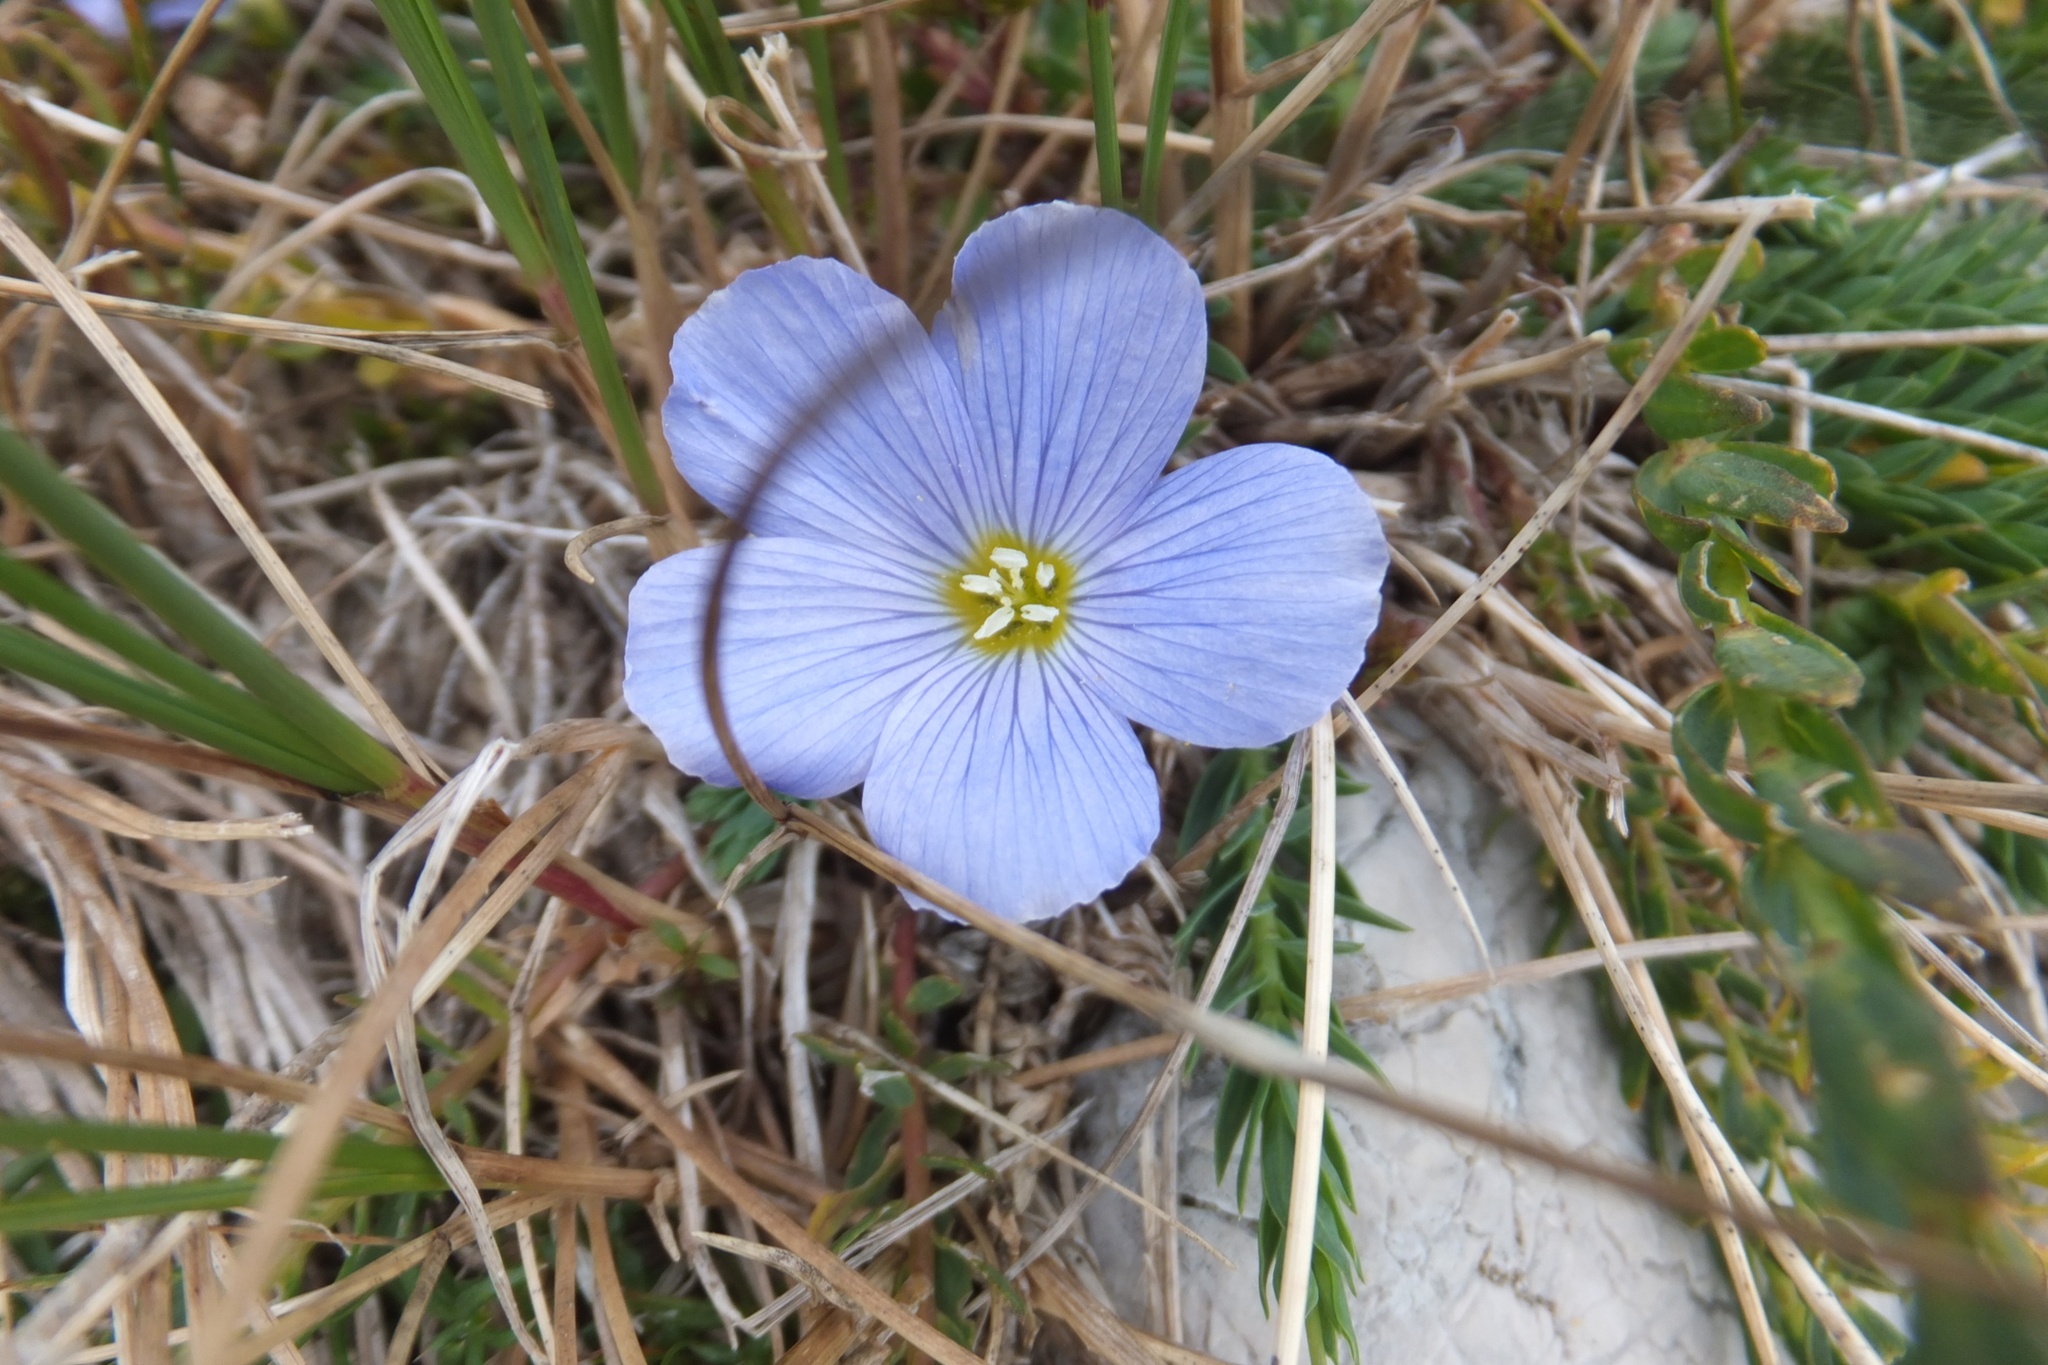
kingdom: Plantae
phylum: Tracheophyta
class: Magnoliopsida
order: Malpighiales
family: Linaceae
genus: Linum
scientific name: Linum alpinum
